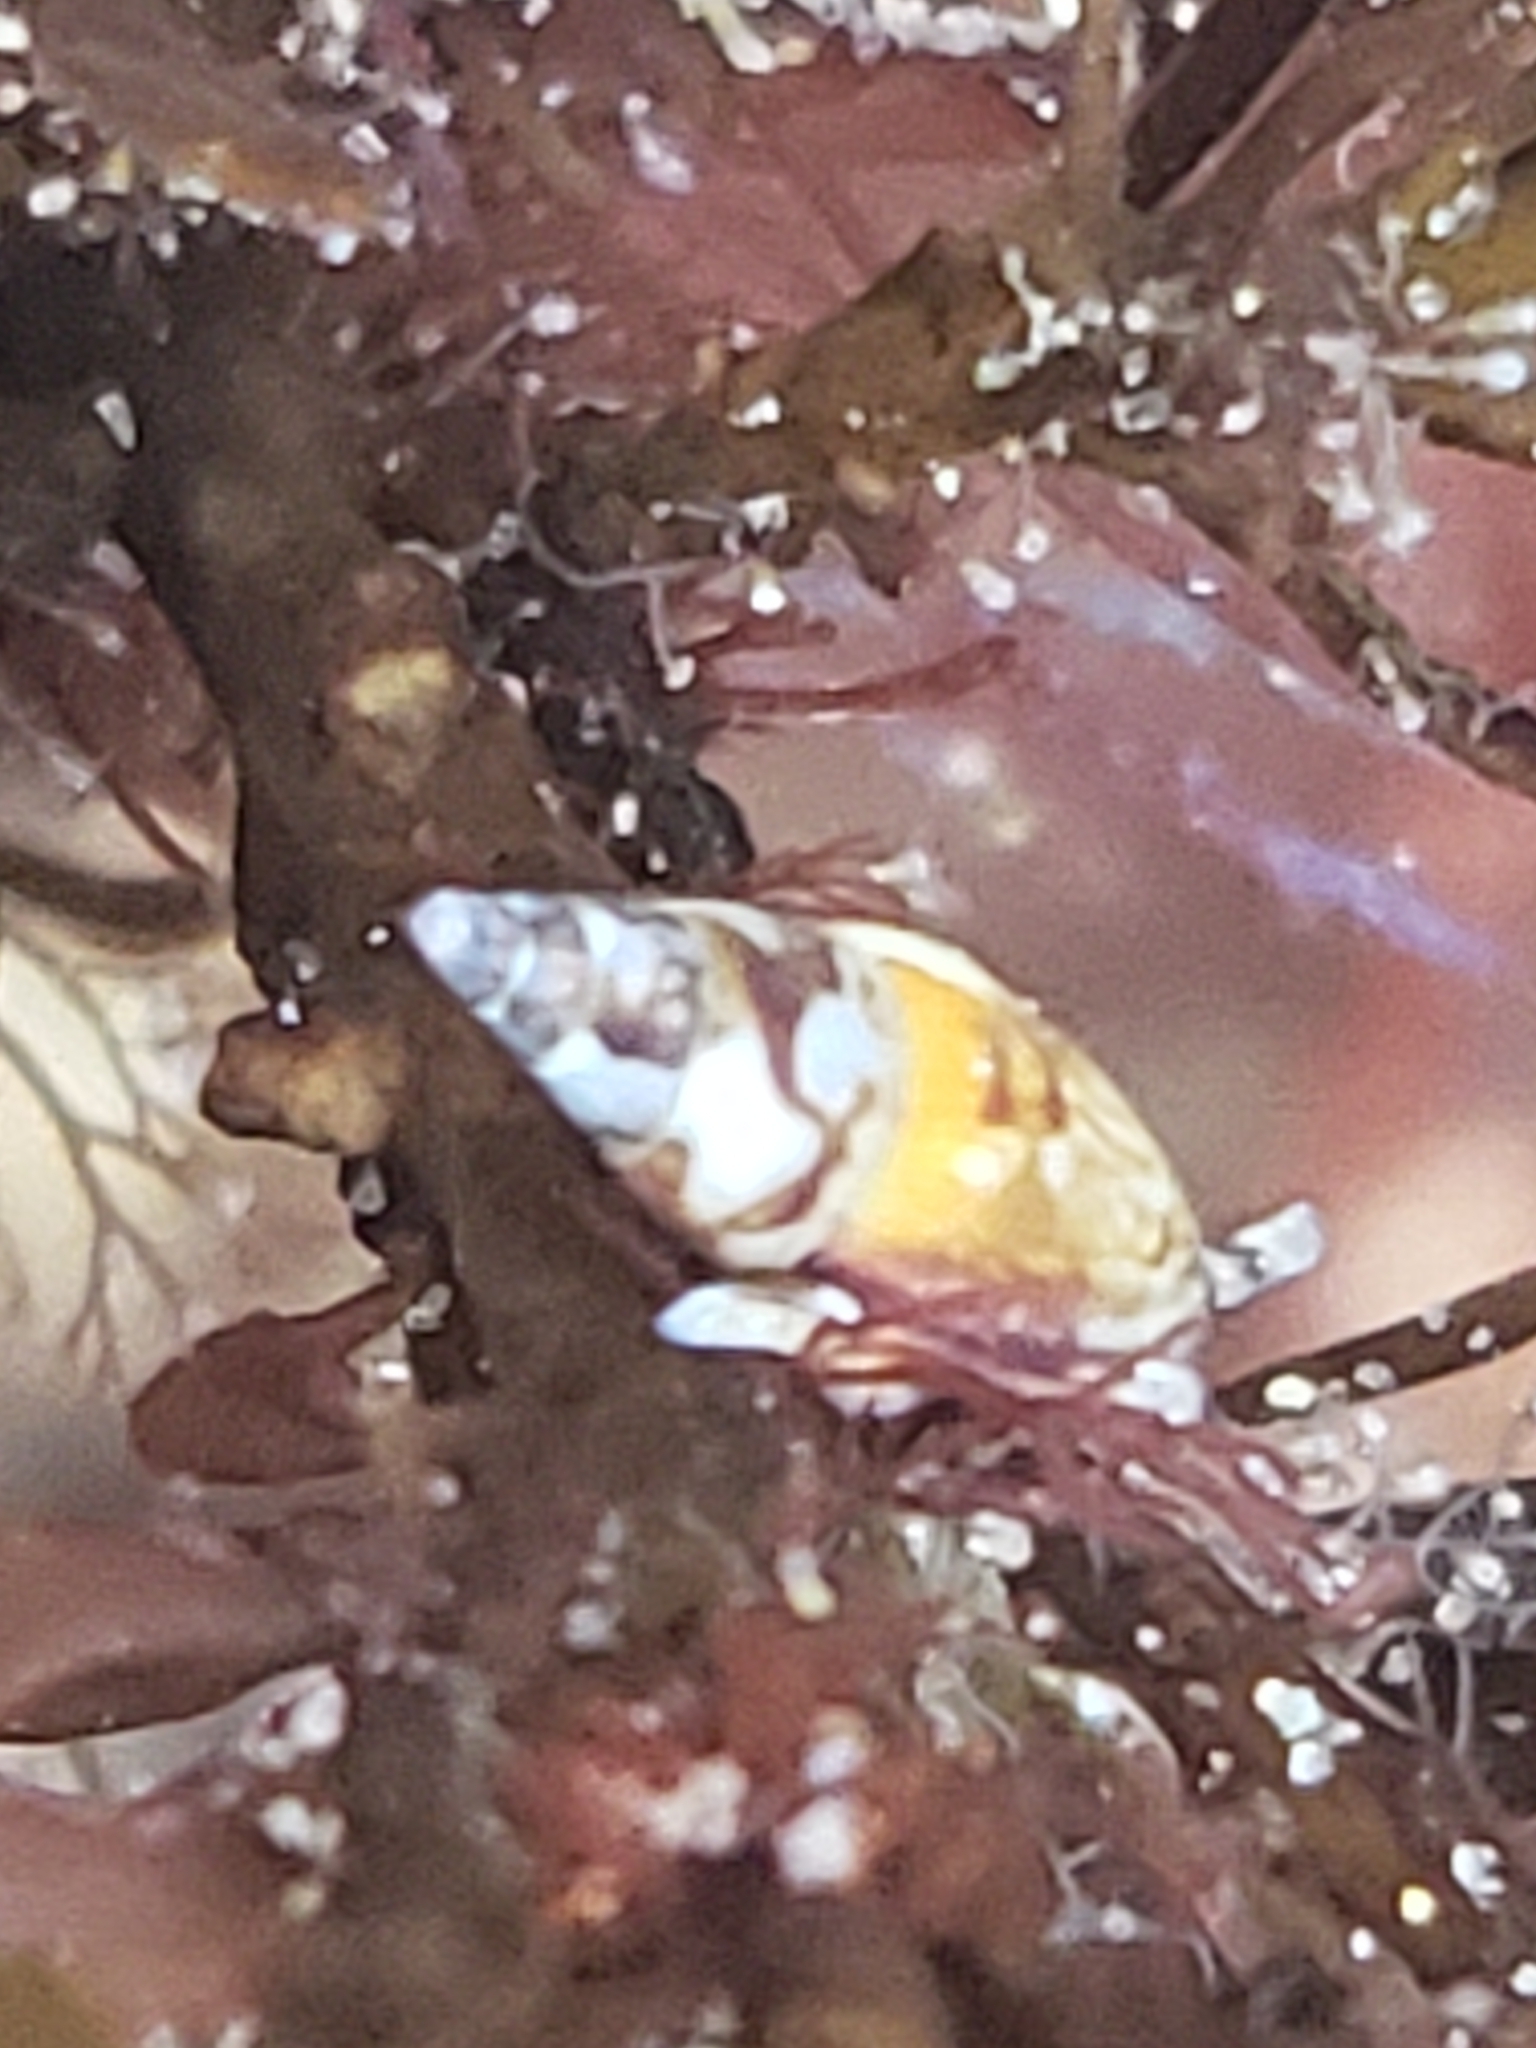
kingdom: Animalia
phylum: Mollusca
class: Gastropoda
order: Neogastropoda
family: Columbellidae
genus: Alia
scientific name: Alia carinata
